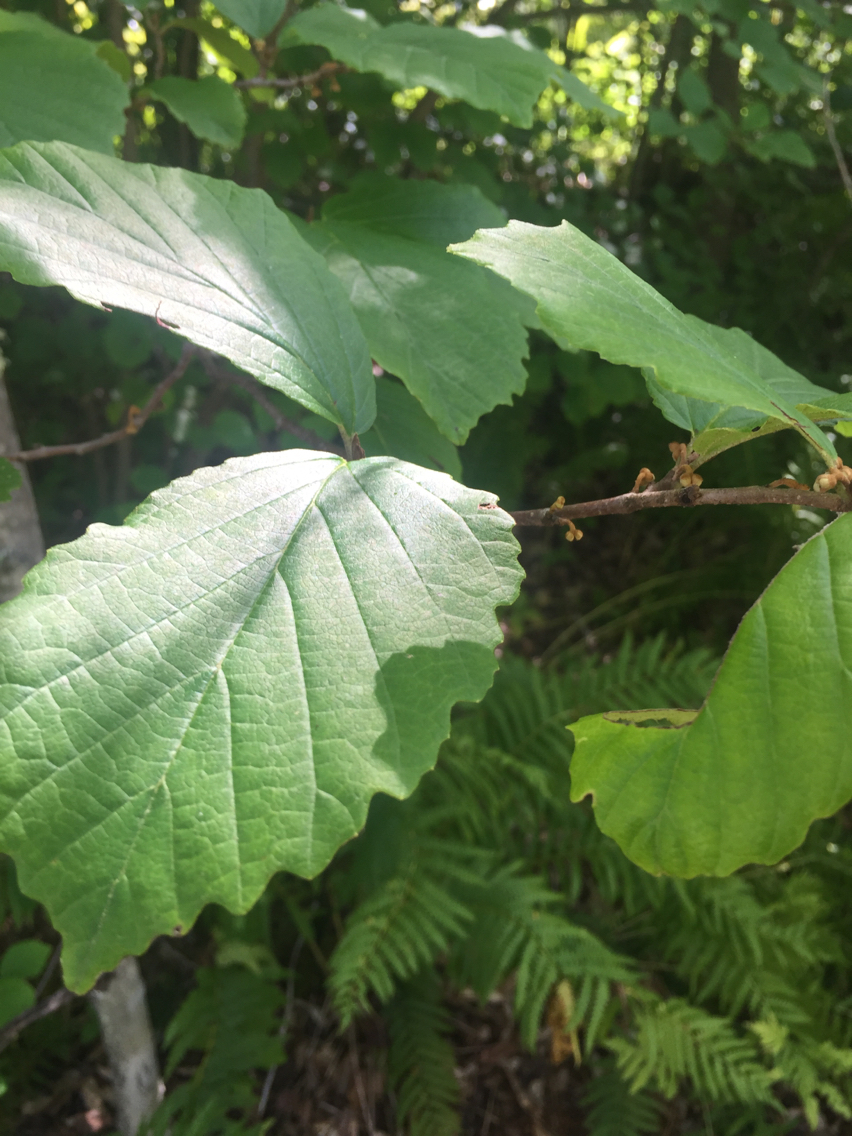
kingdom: Plantae
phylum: Tracheophyta
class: Magnoliopsida
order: Saxifragales
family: Hamamelidaceae
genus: Hamamelis
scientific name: Hamamelis virginiana
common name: Witch-hazel
